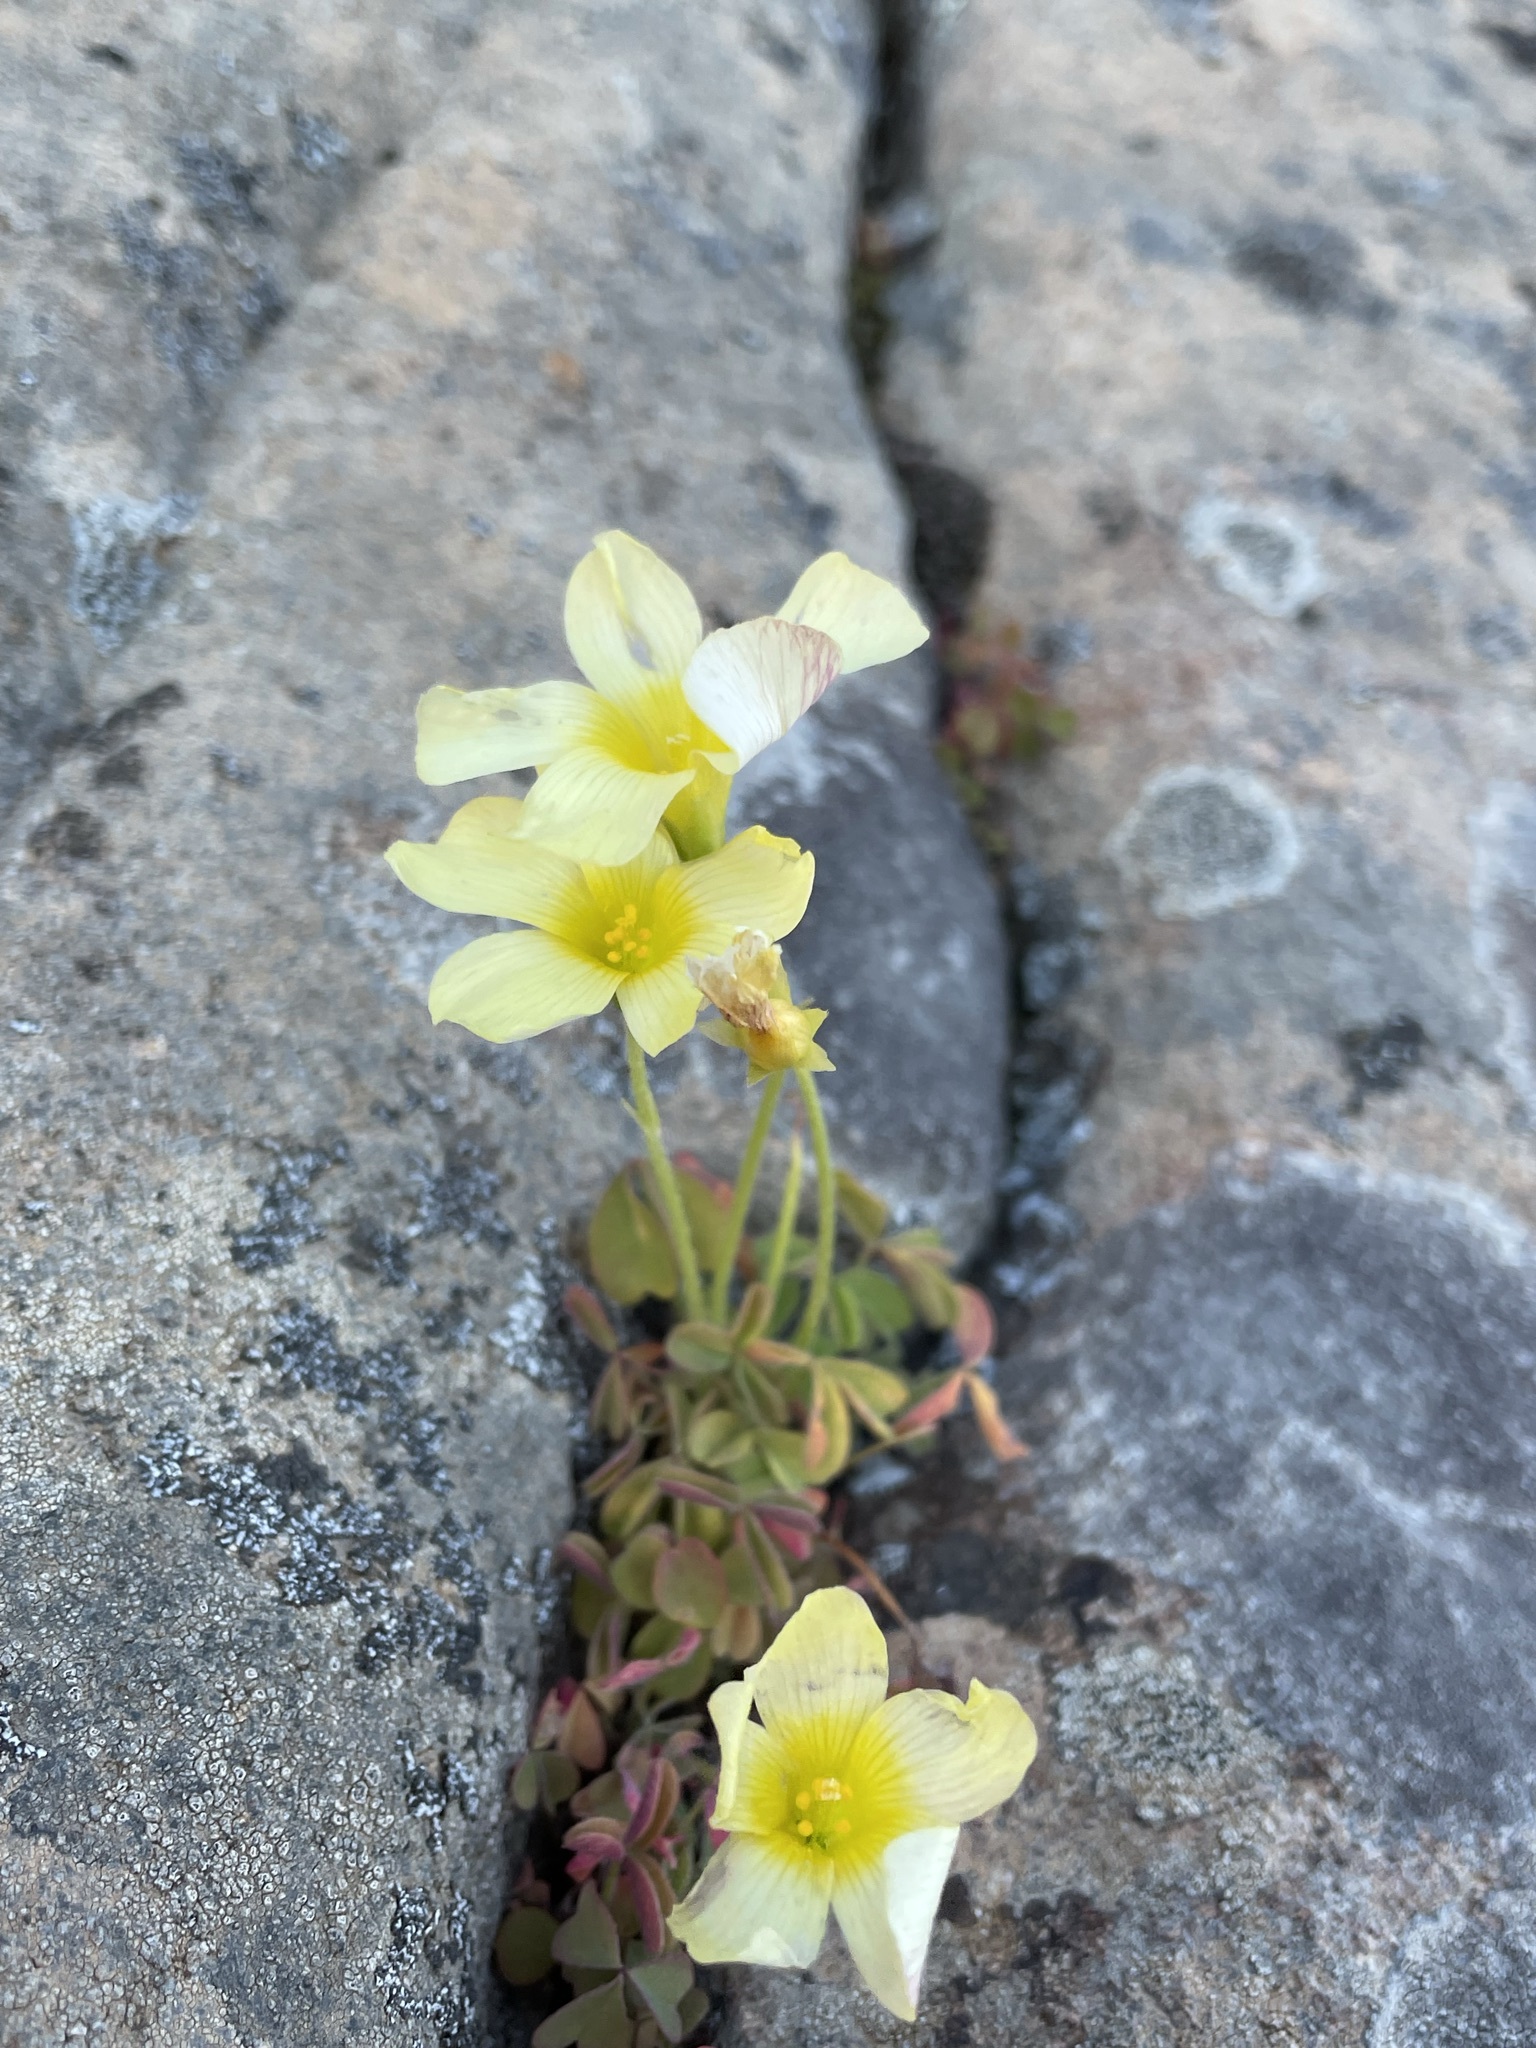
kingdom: Plantae
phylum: Tracheophyta
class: Magnoliopsida
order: Oxalidales
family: Oxalidaceae
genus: Oxalis
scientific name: Oxalis obtusa
